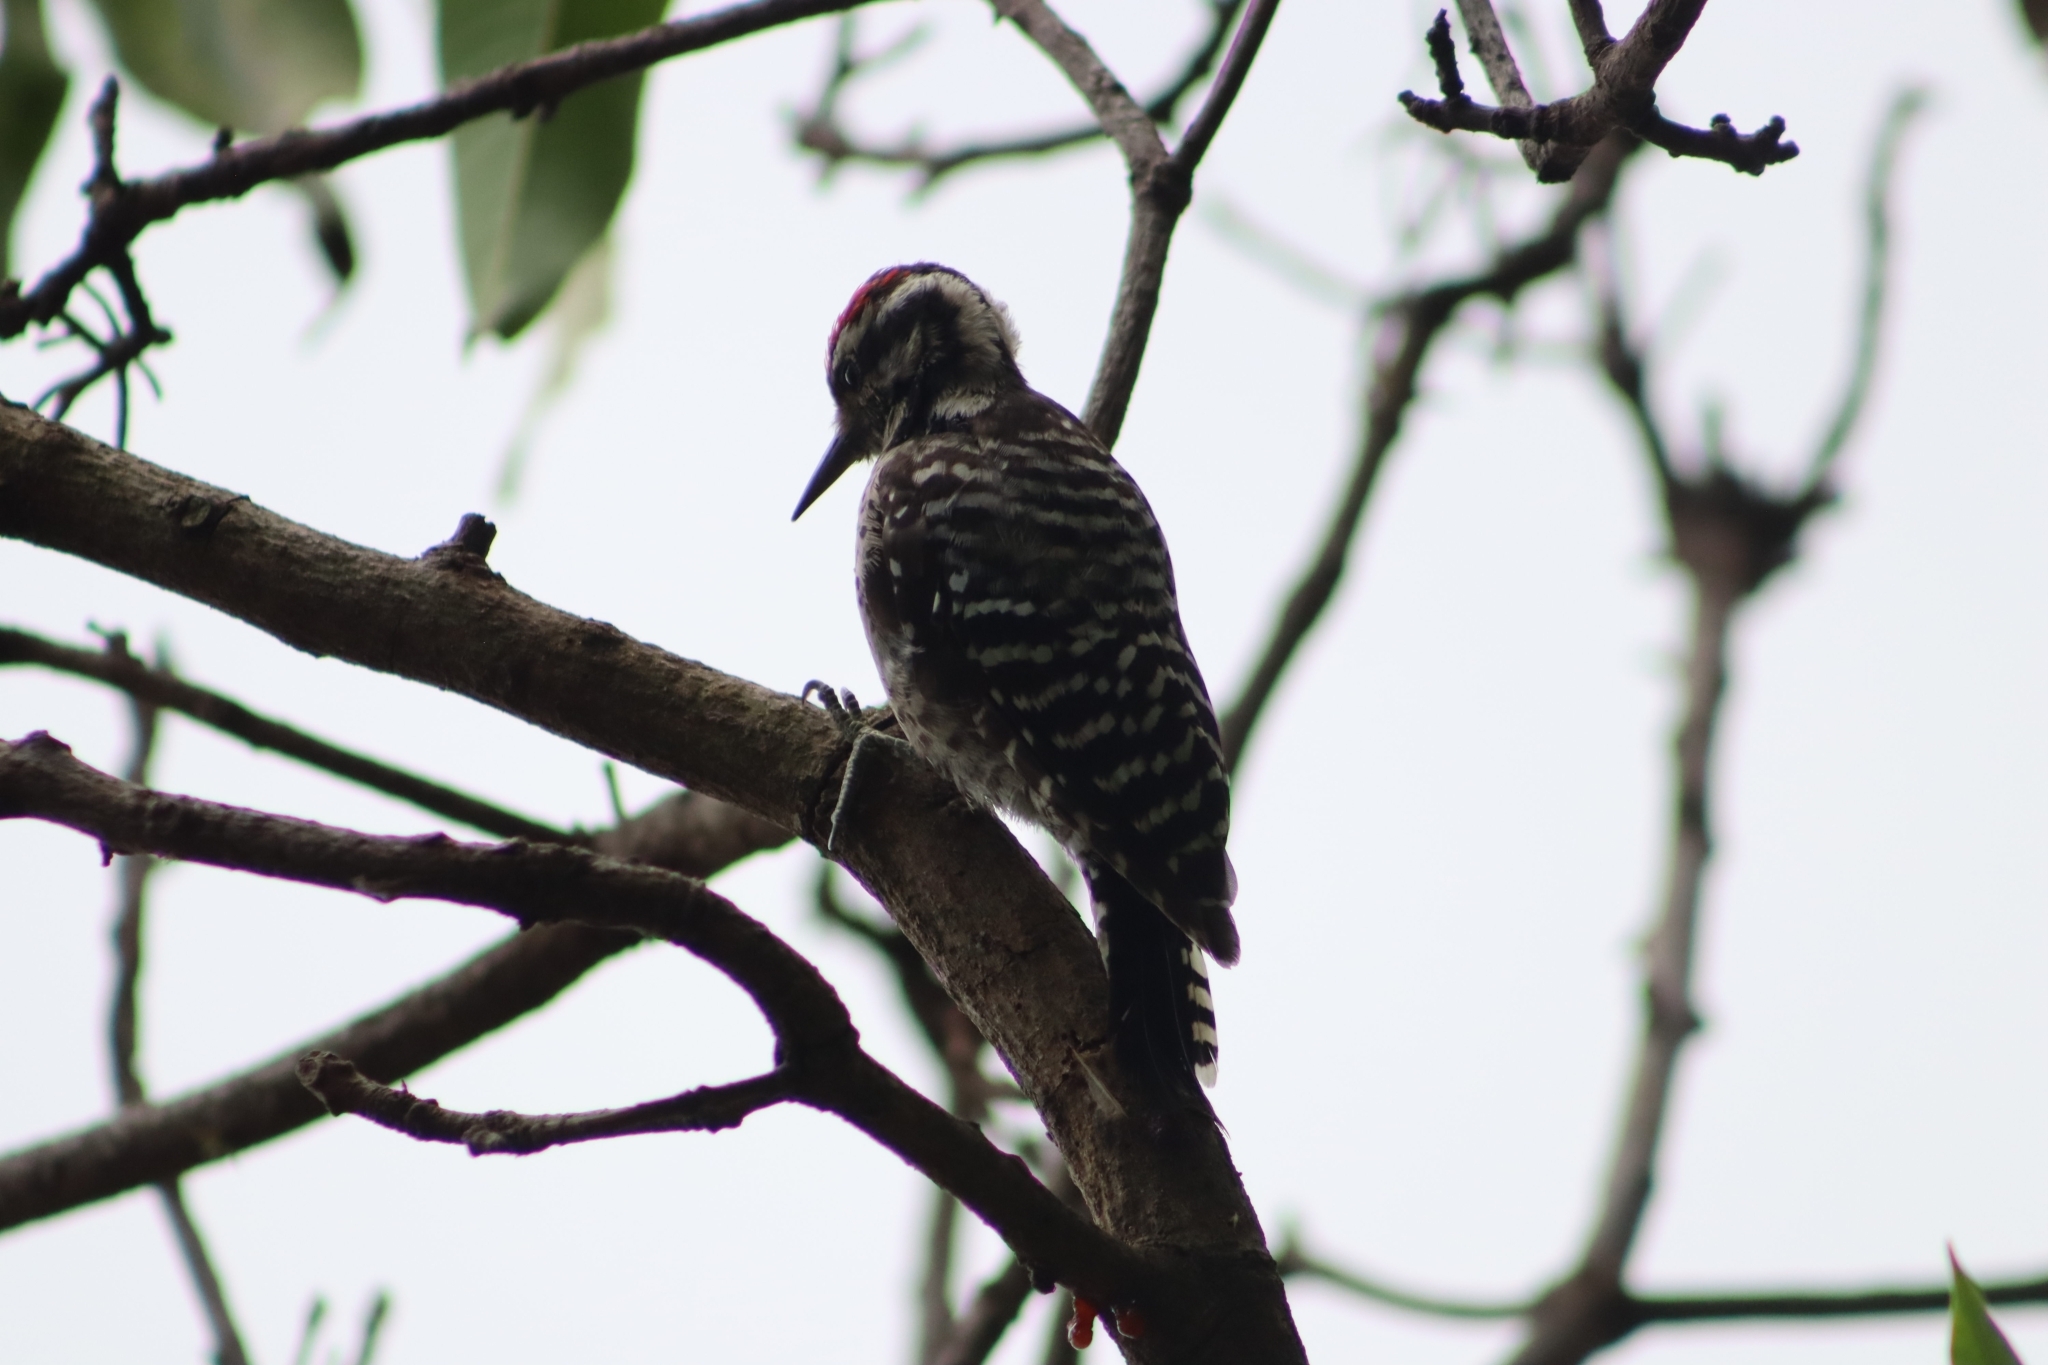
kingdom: Animalia
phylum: Chordata
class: Aves
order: Piciformes
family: Picidae
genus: Dryobates
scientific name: Dryobates scalaris
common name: Ladder-backed woodpecker
